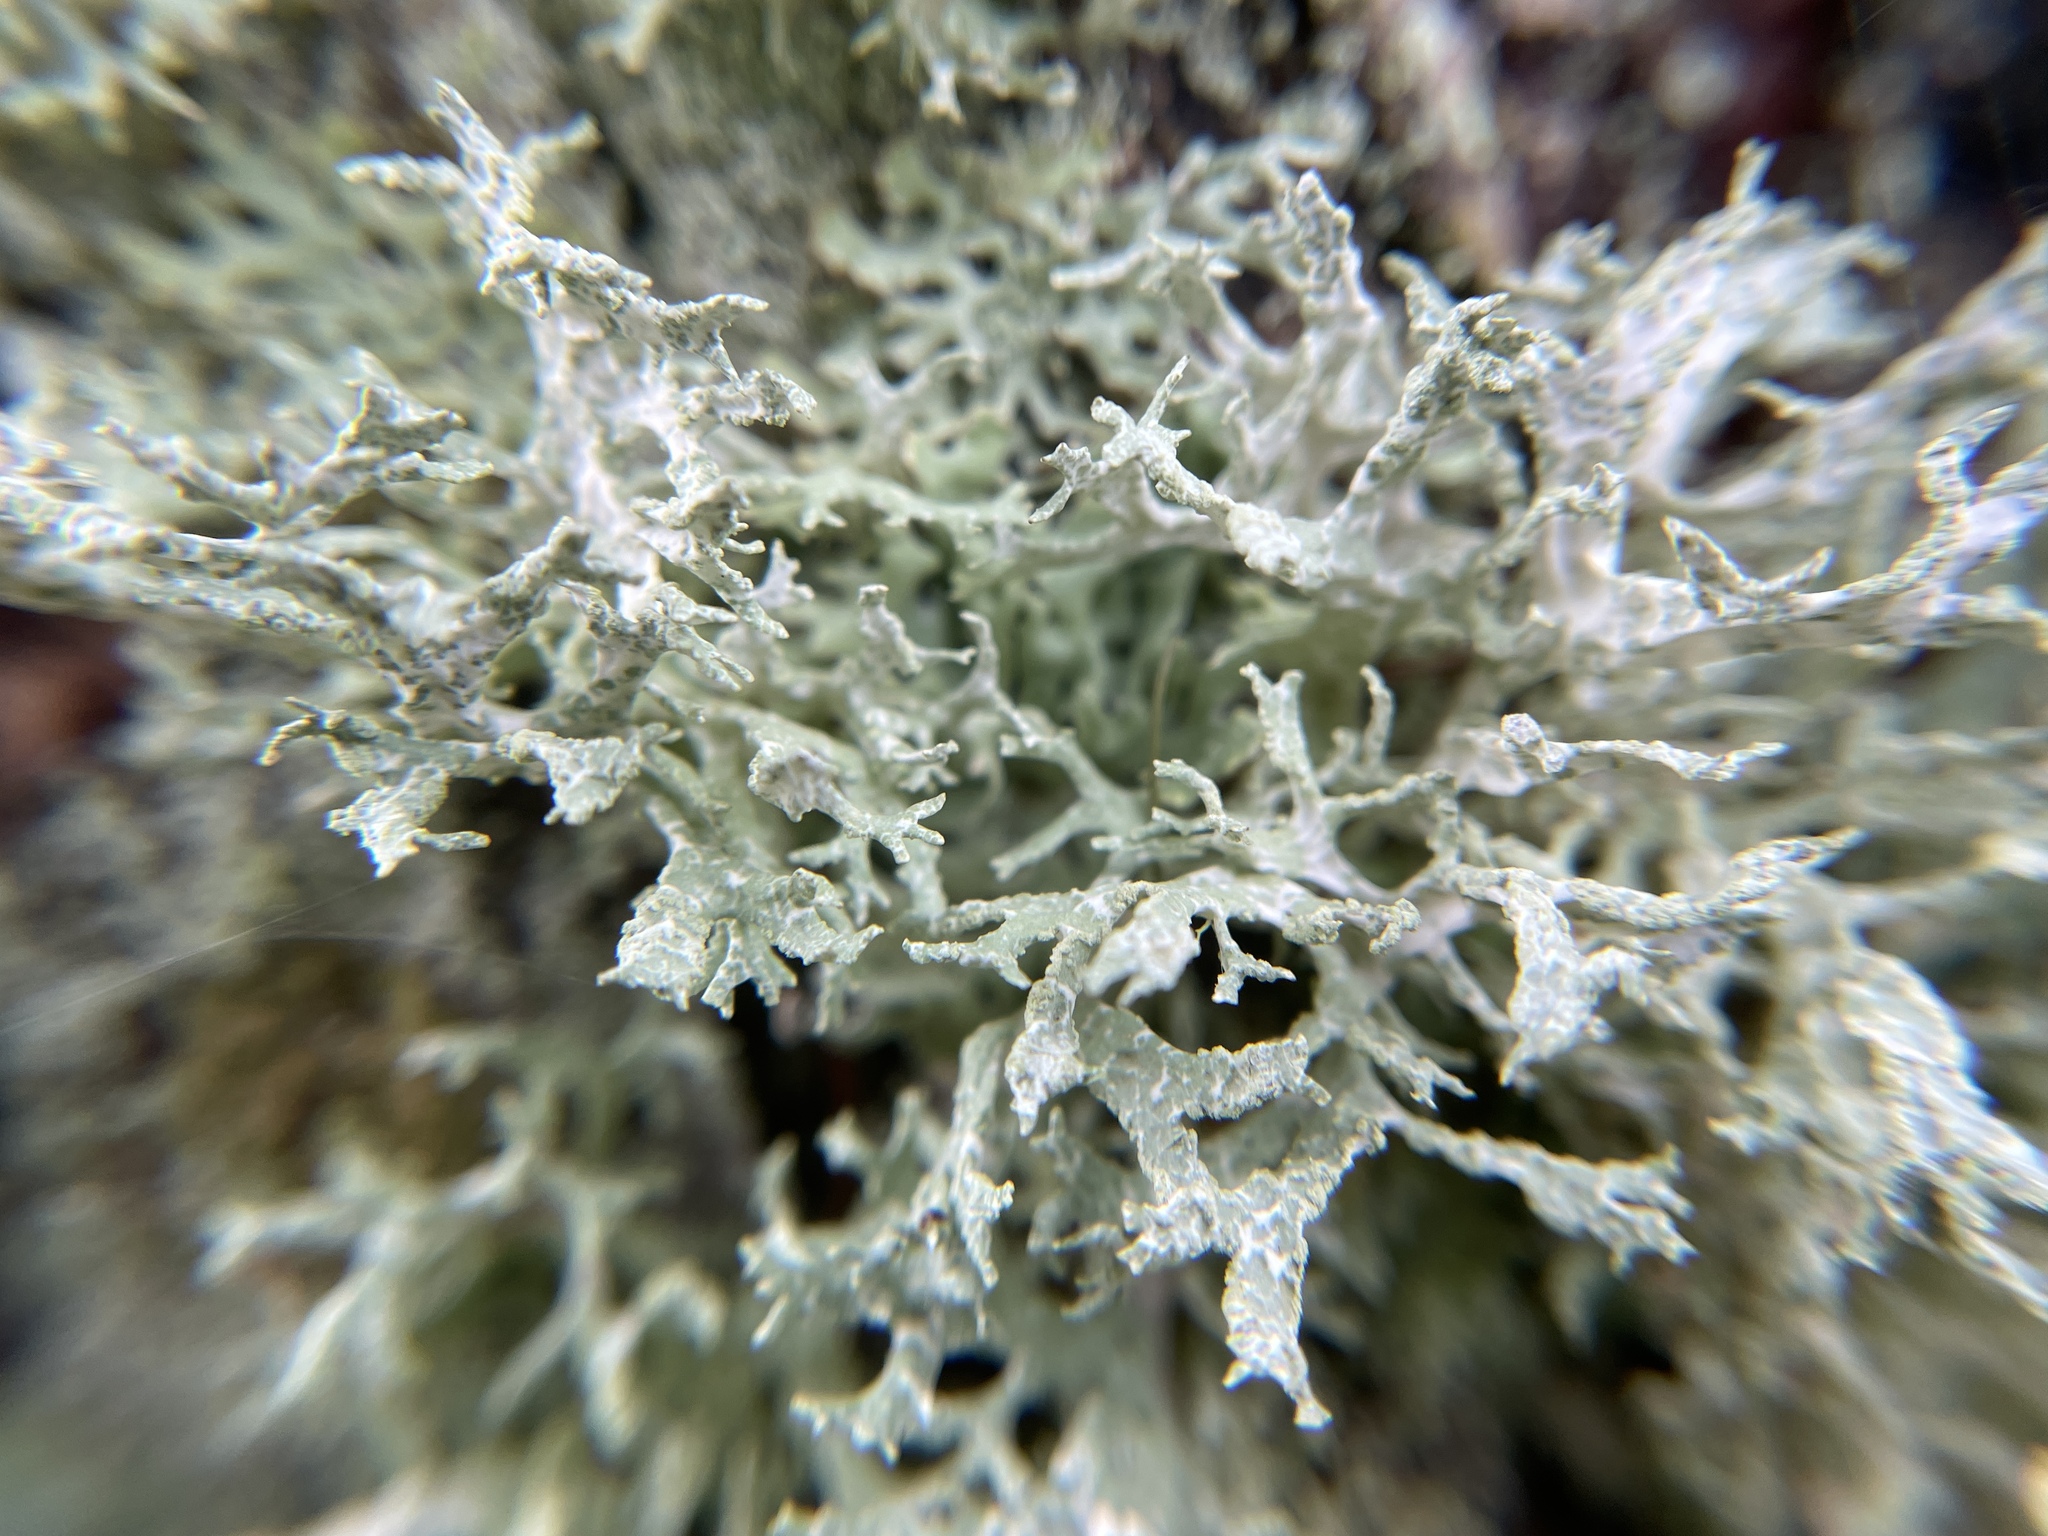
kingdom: Fungi
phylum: Ascomycota
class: Lecanoromycetes
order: Lecanorales
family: Parmeliaceae
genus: Evernia
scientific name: Evernia prunastri
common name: Oak moss
